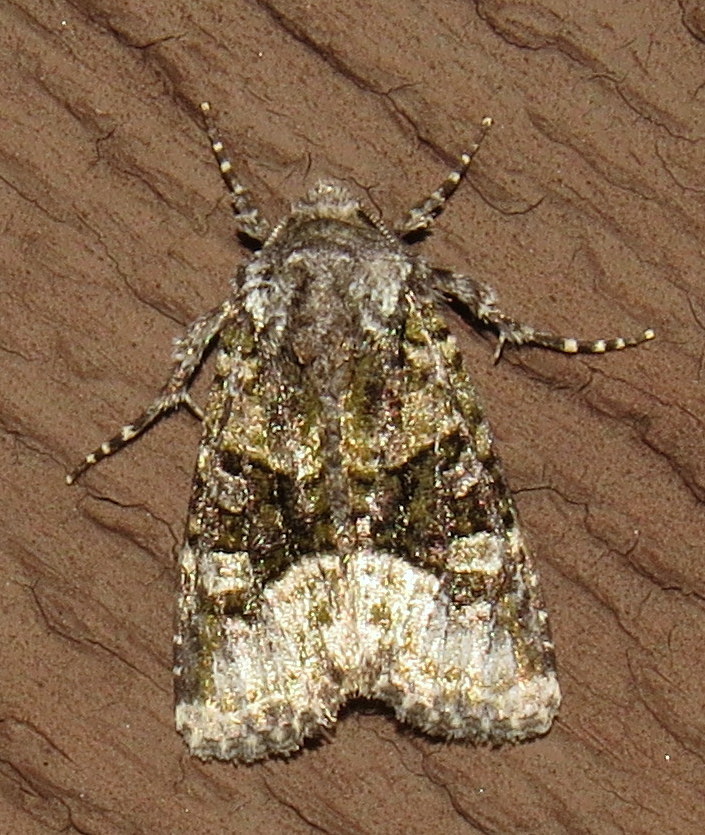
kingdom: Animalia
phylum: Arthropoda
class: Insecta
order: Lepidoptera
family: Noctuidae
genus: Lacinipolia
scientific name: Lacinipolia olivacea
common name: Olive arches moth
